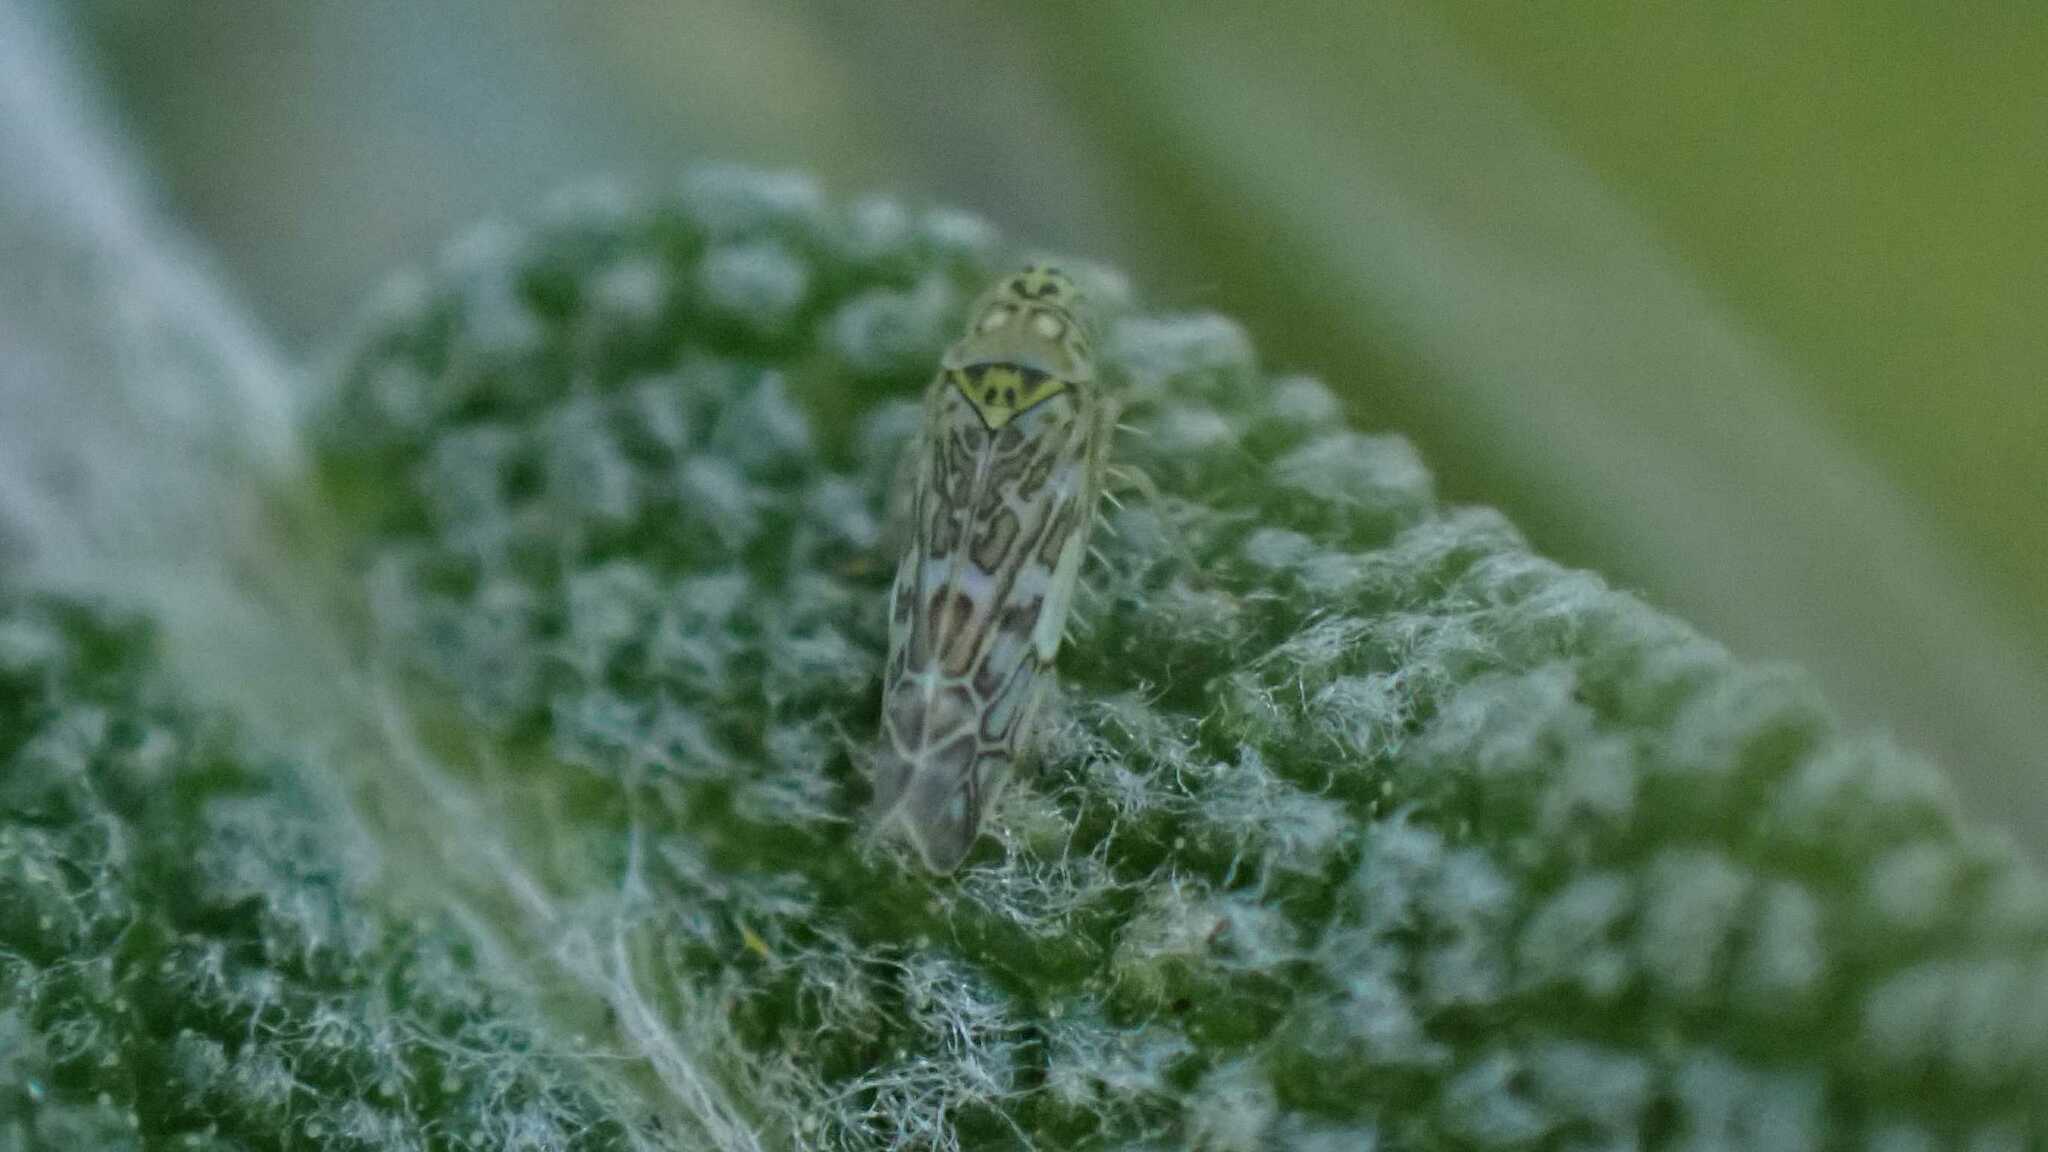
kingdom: Animalia
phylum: Arthropoda
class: Insecta
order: Hemiptera
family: Cicadellidae
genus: Eupteryx
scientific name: Eupteryx decemnotata
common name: Ligurian leafhopper
